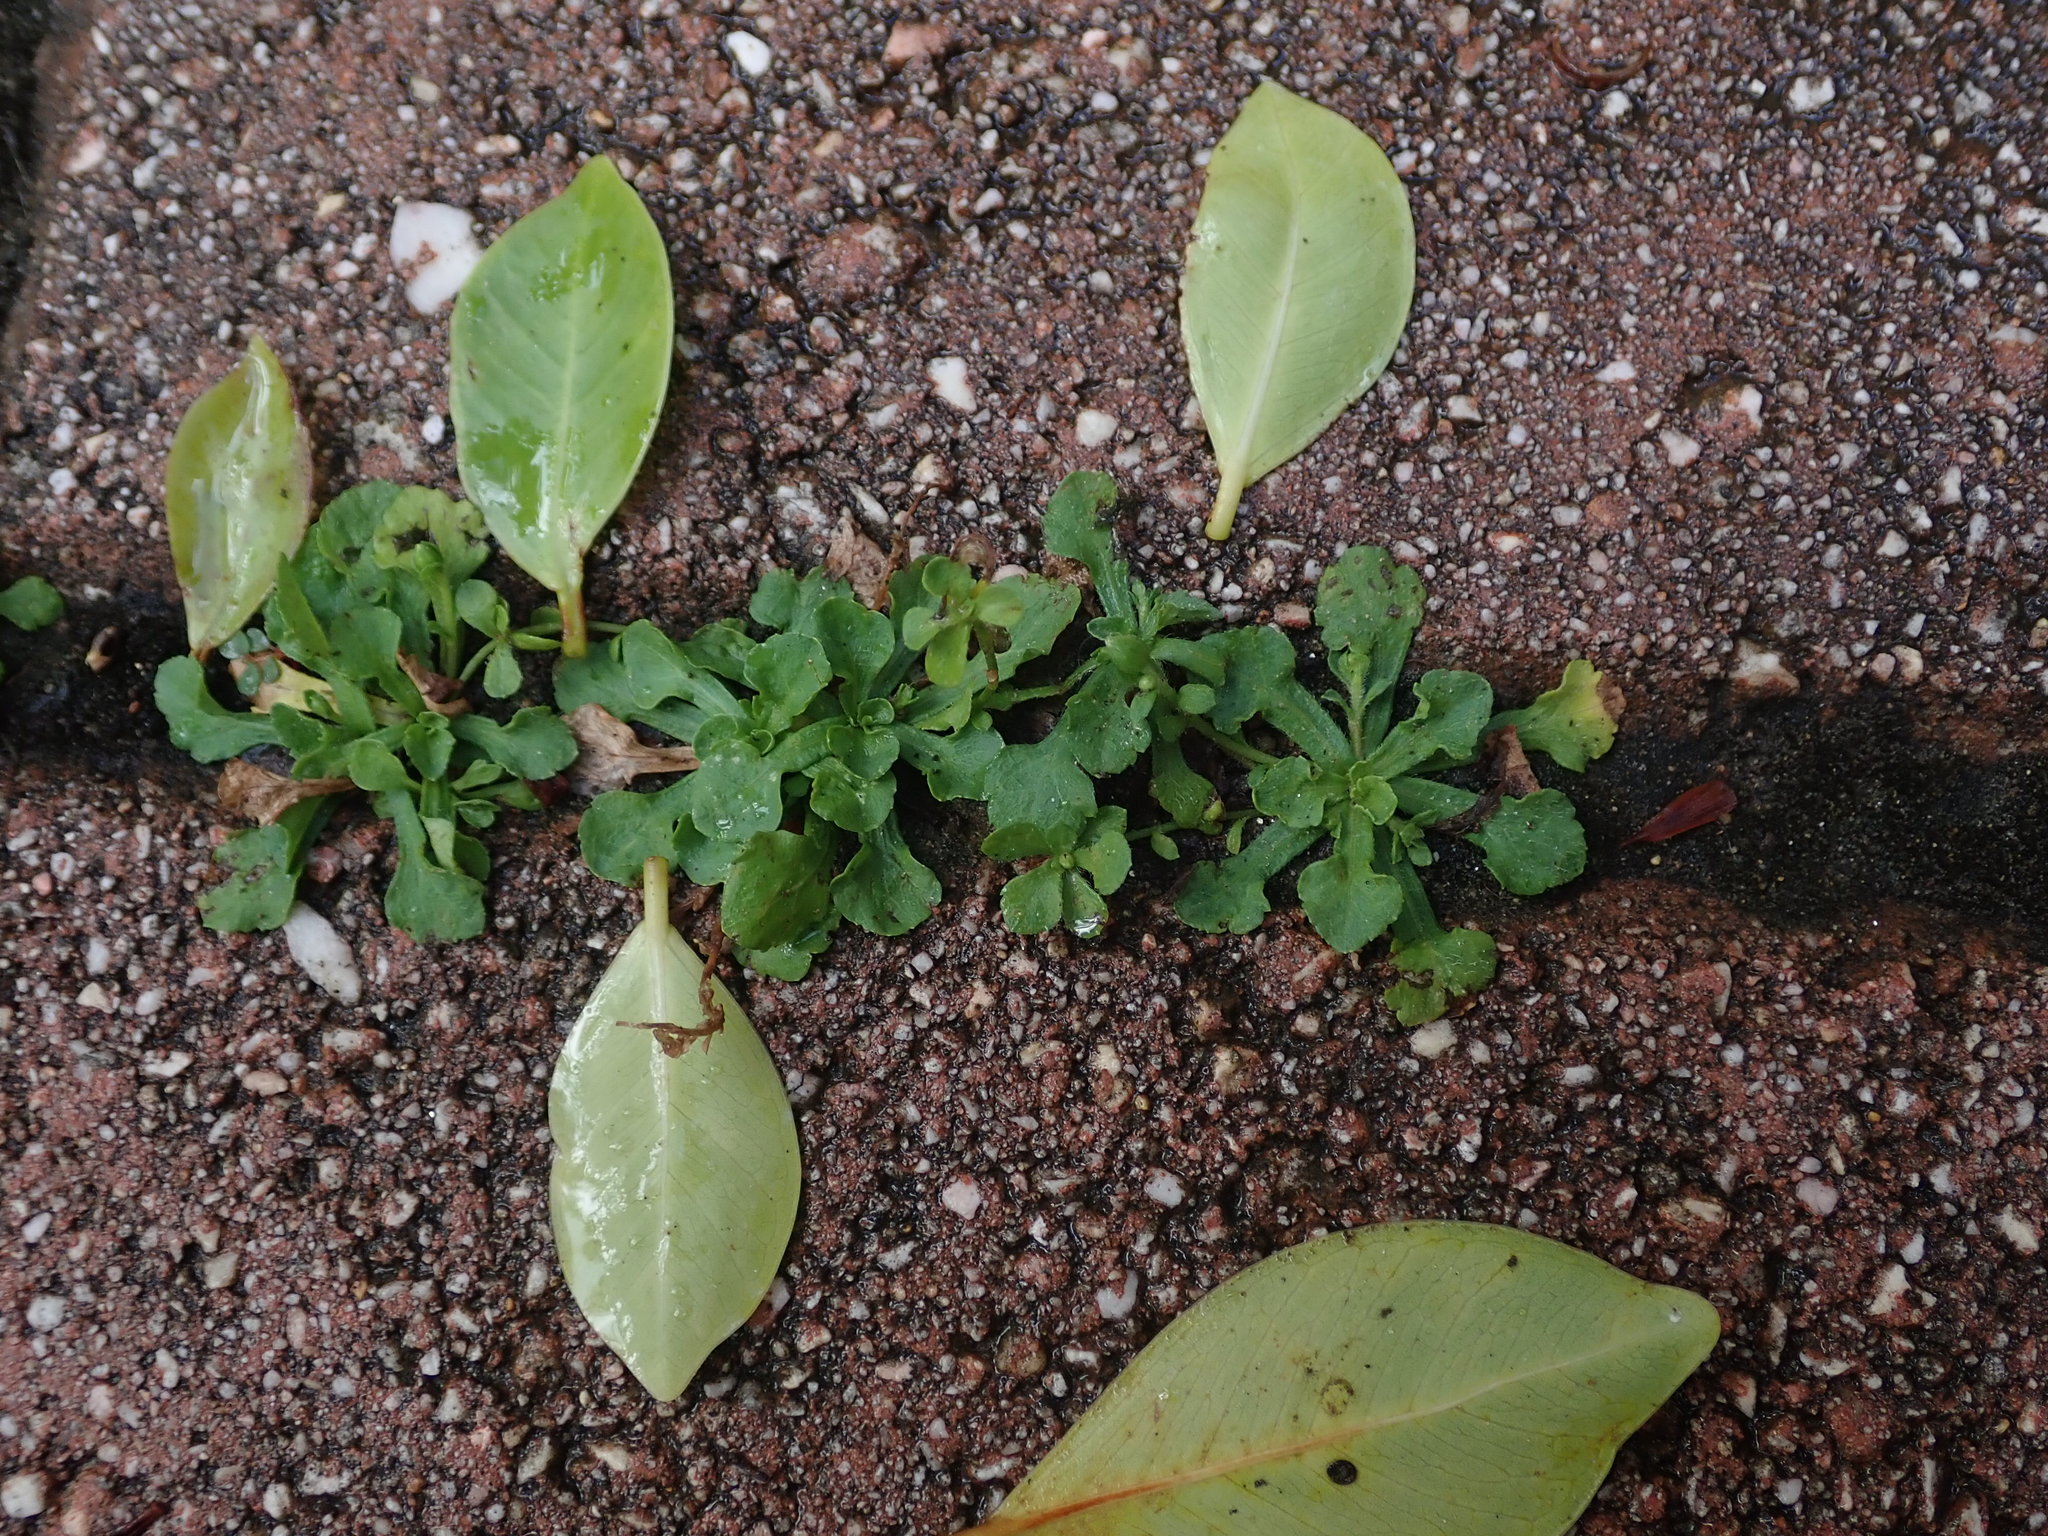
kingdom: Plantae
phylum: Tracheophyta
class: Magnoliopsida
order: Asterales
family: Asteraceae
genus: Erigeron
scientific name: Erigeron bellioides
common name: Bellorita
